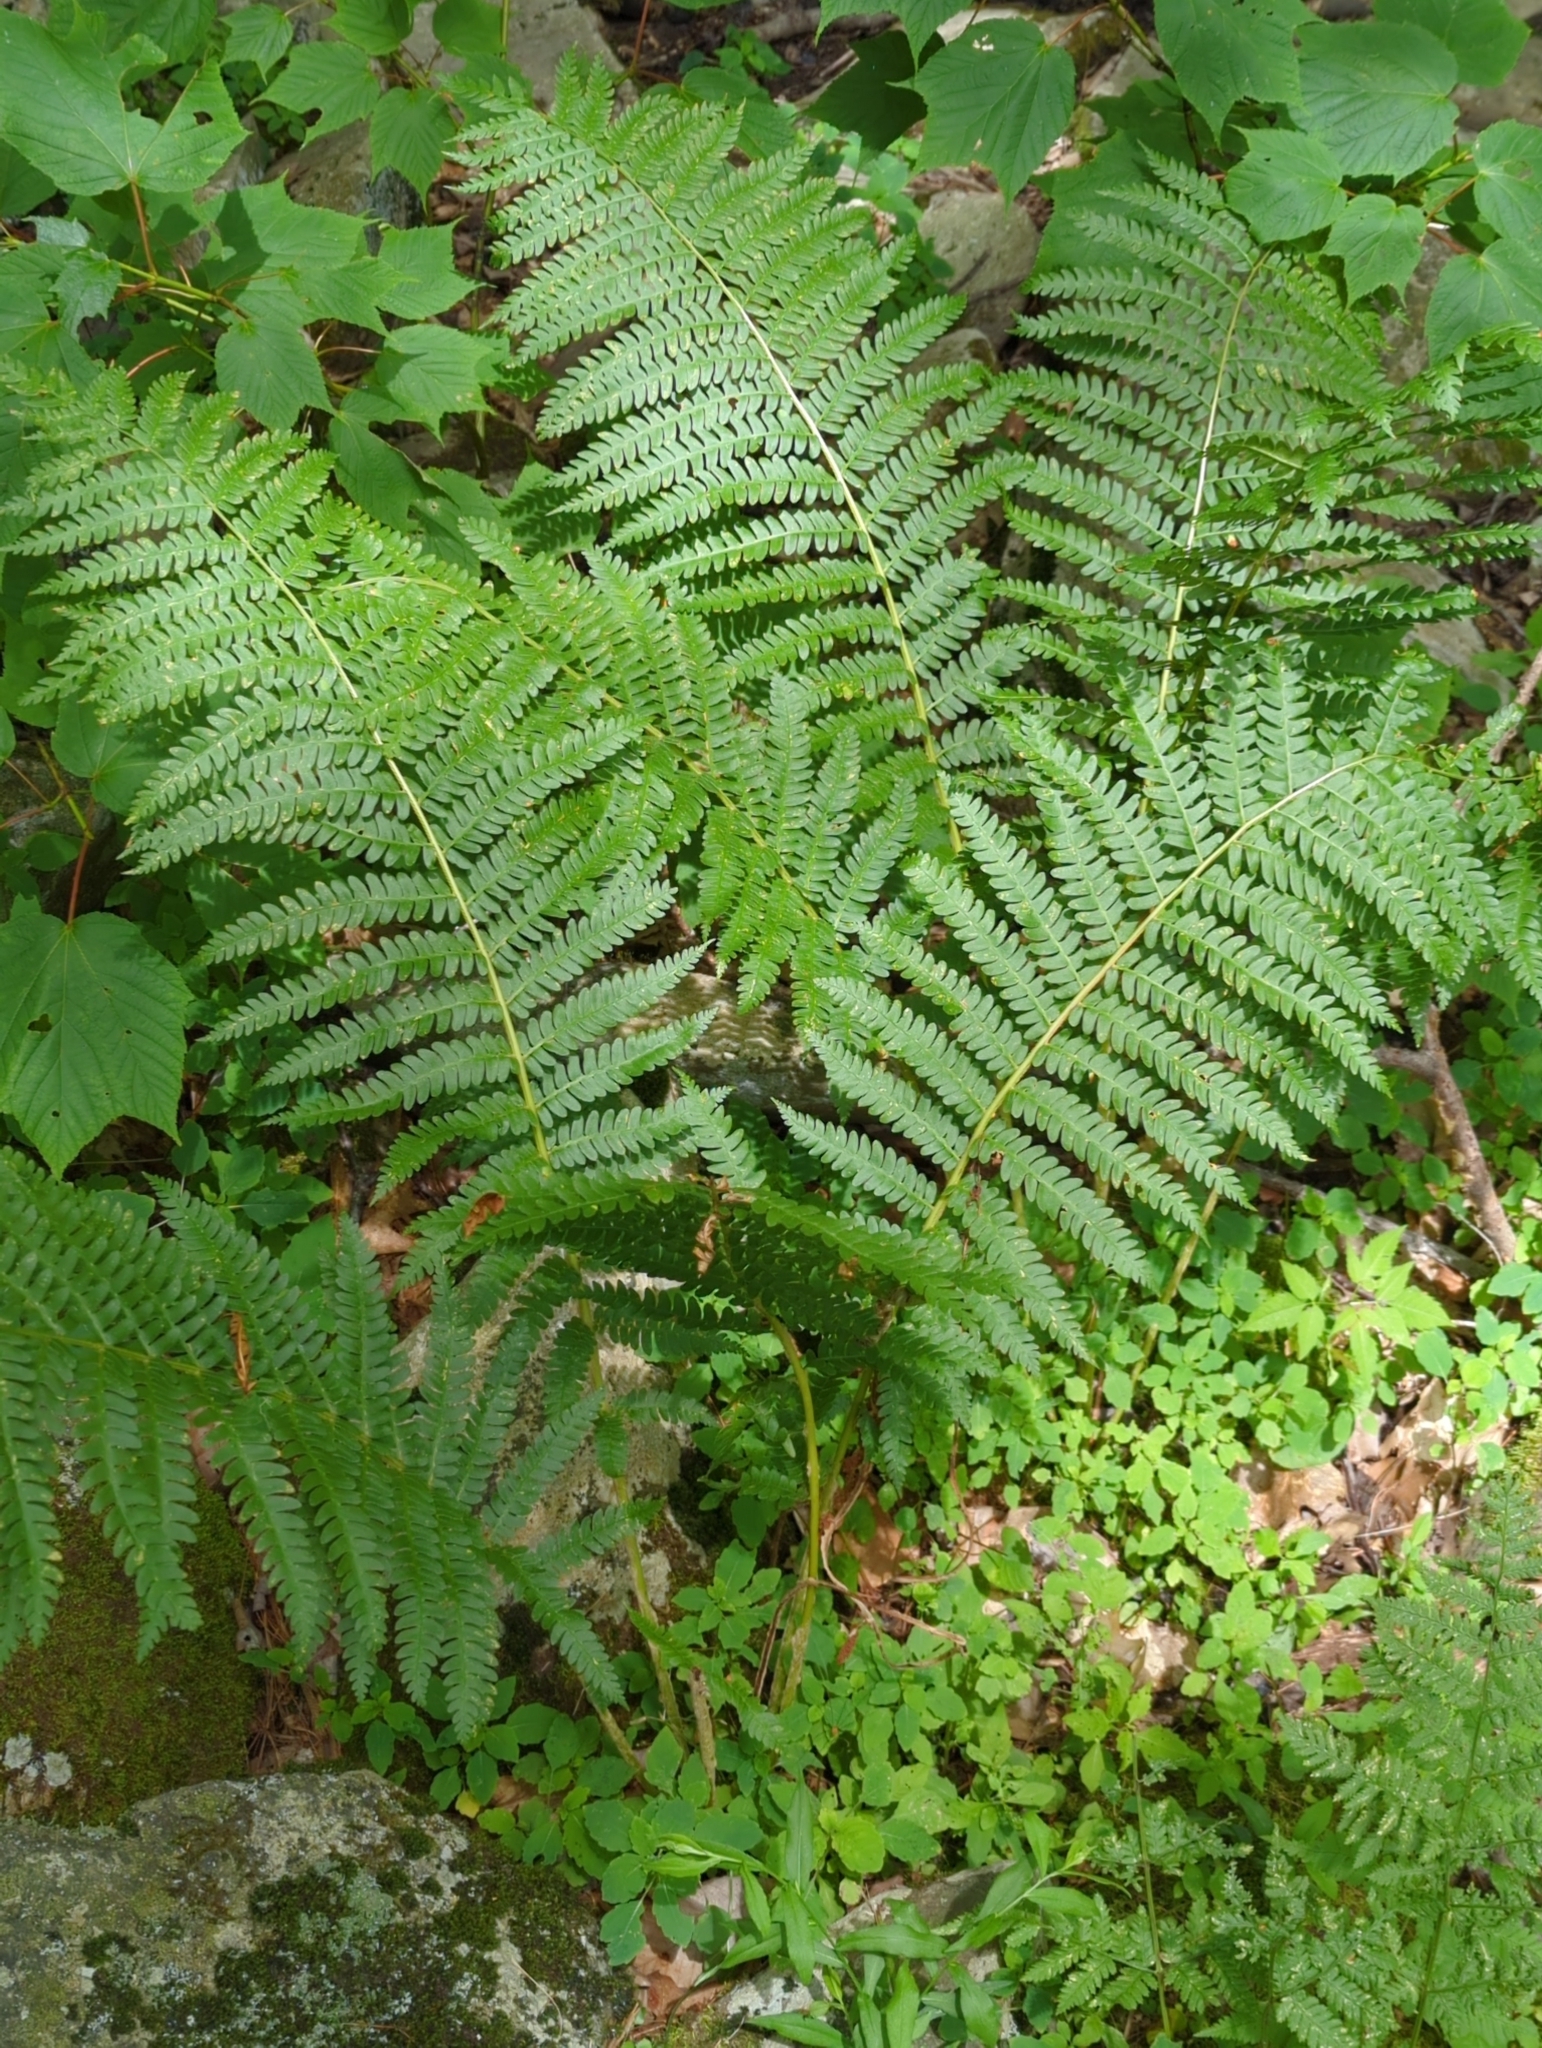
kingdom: Plantae
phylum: Tracheophyta
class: Polypodiopsida
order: Osmundales
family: Osmundaceae
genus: Osmundastrum
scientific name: Osmundastrum cinnamomeum
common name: Cinnamon fern
